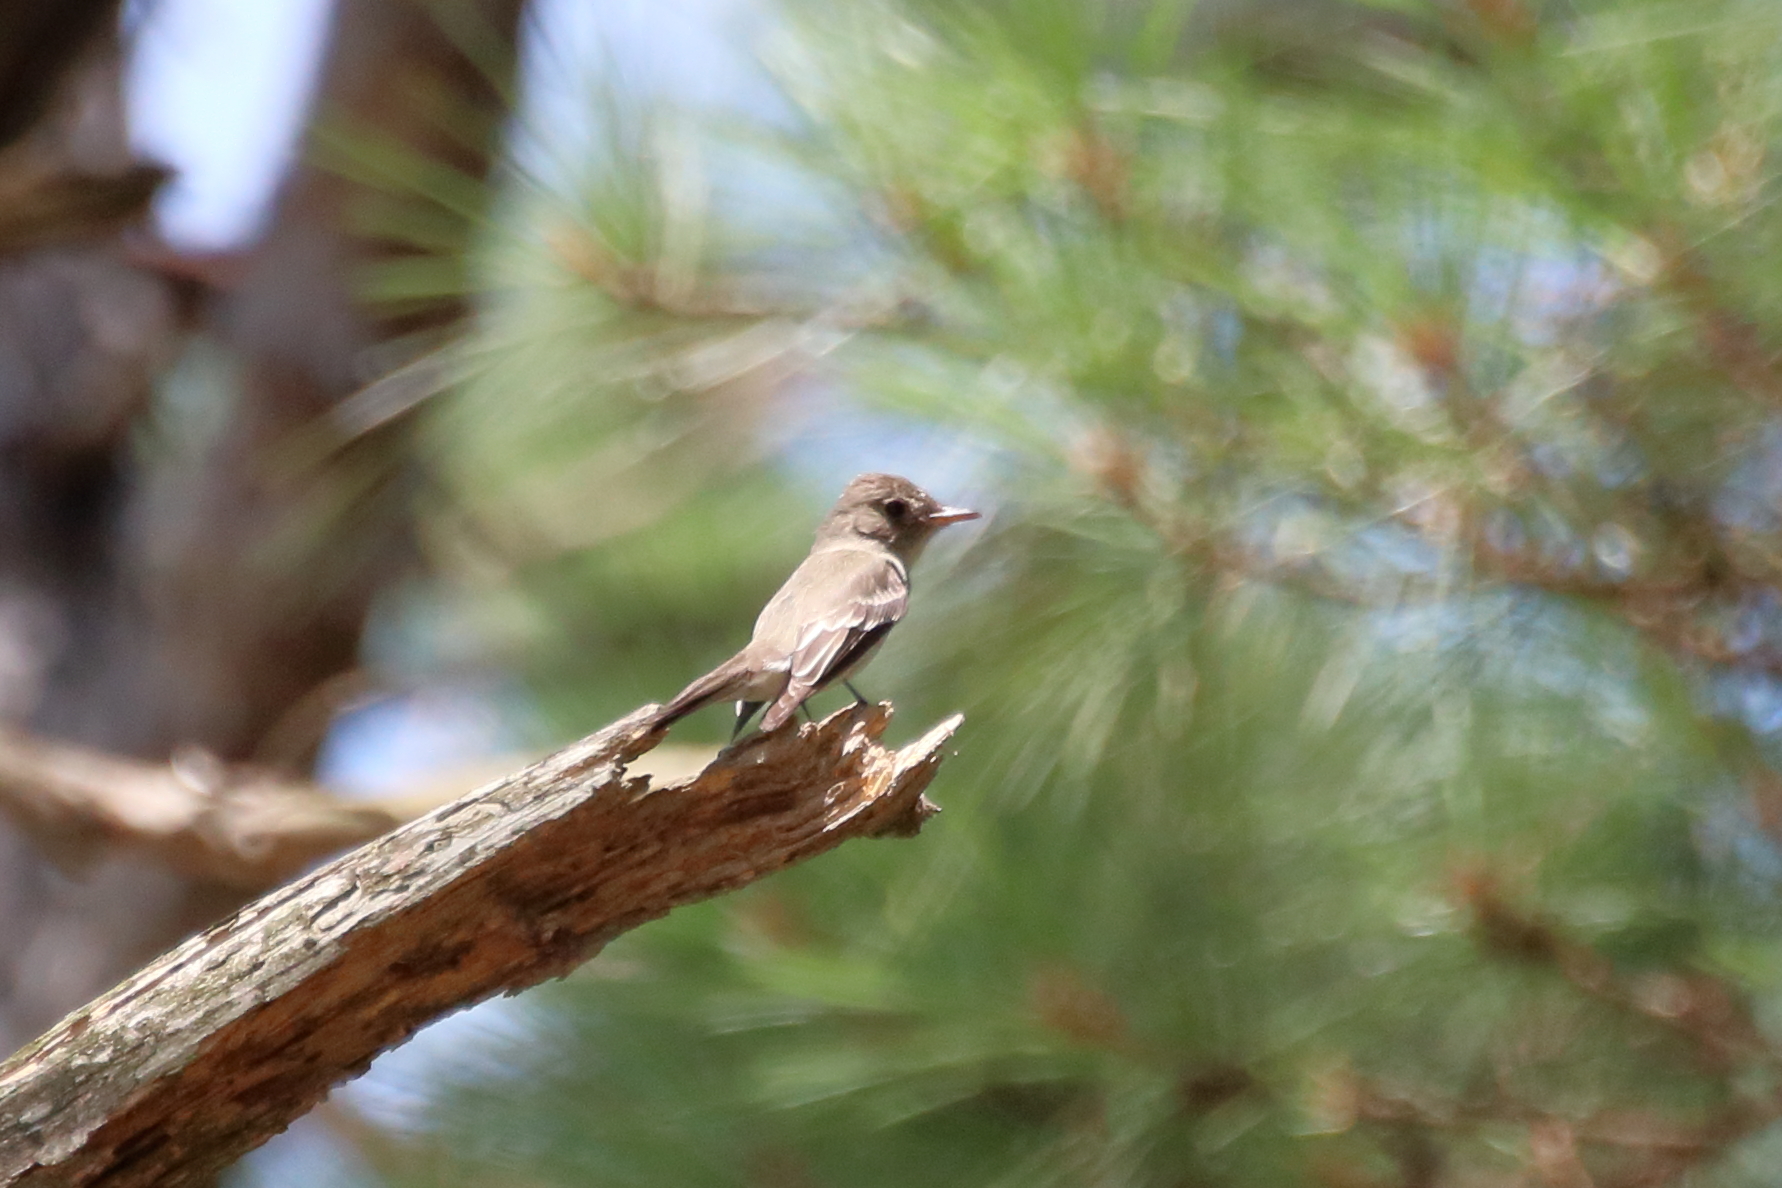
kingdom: Animalia
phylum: Chordata
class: Aves
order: Passeriformes
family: Tyrannidae
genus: Contopus
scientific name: Contopus virens
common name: Eastern wood-pewee
